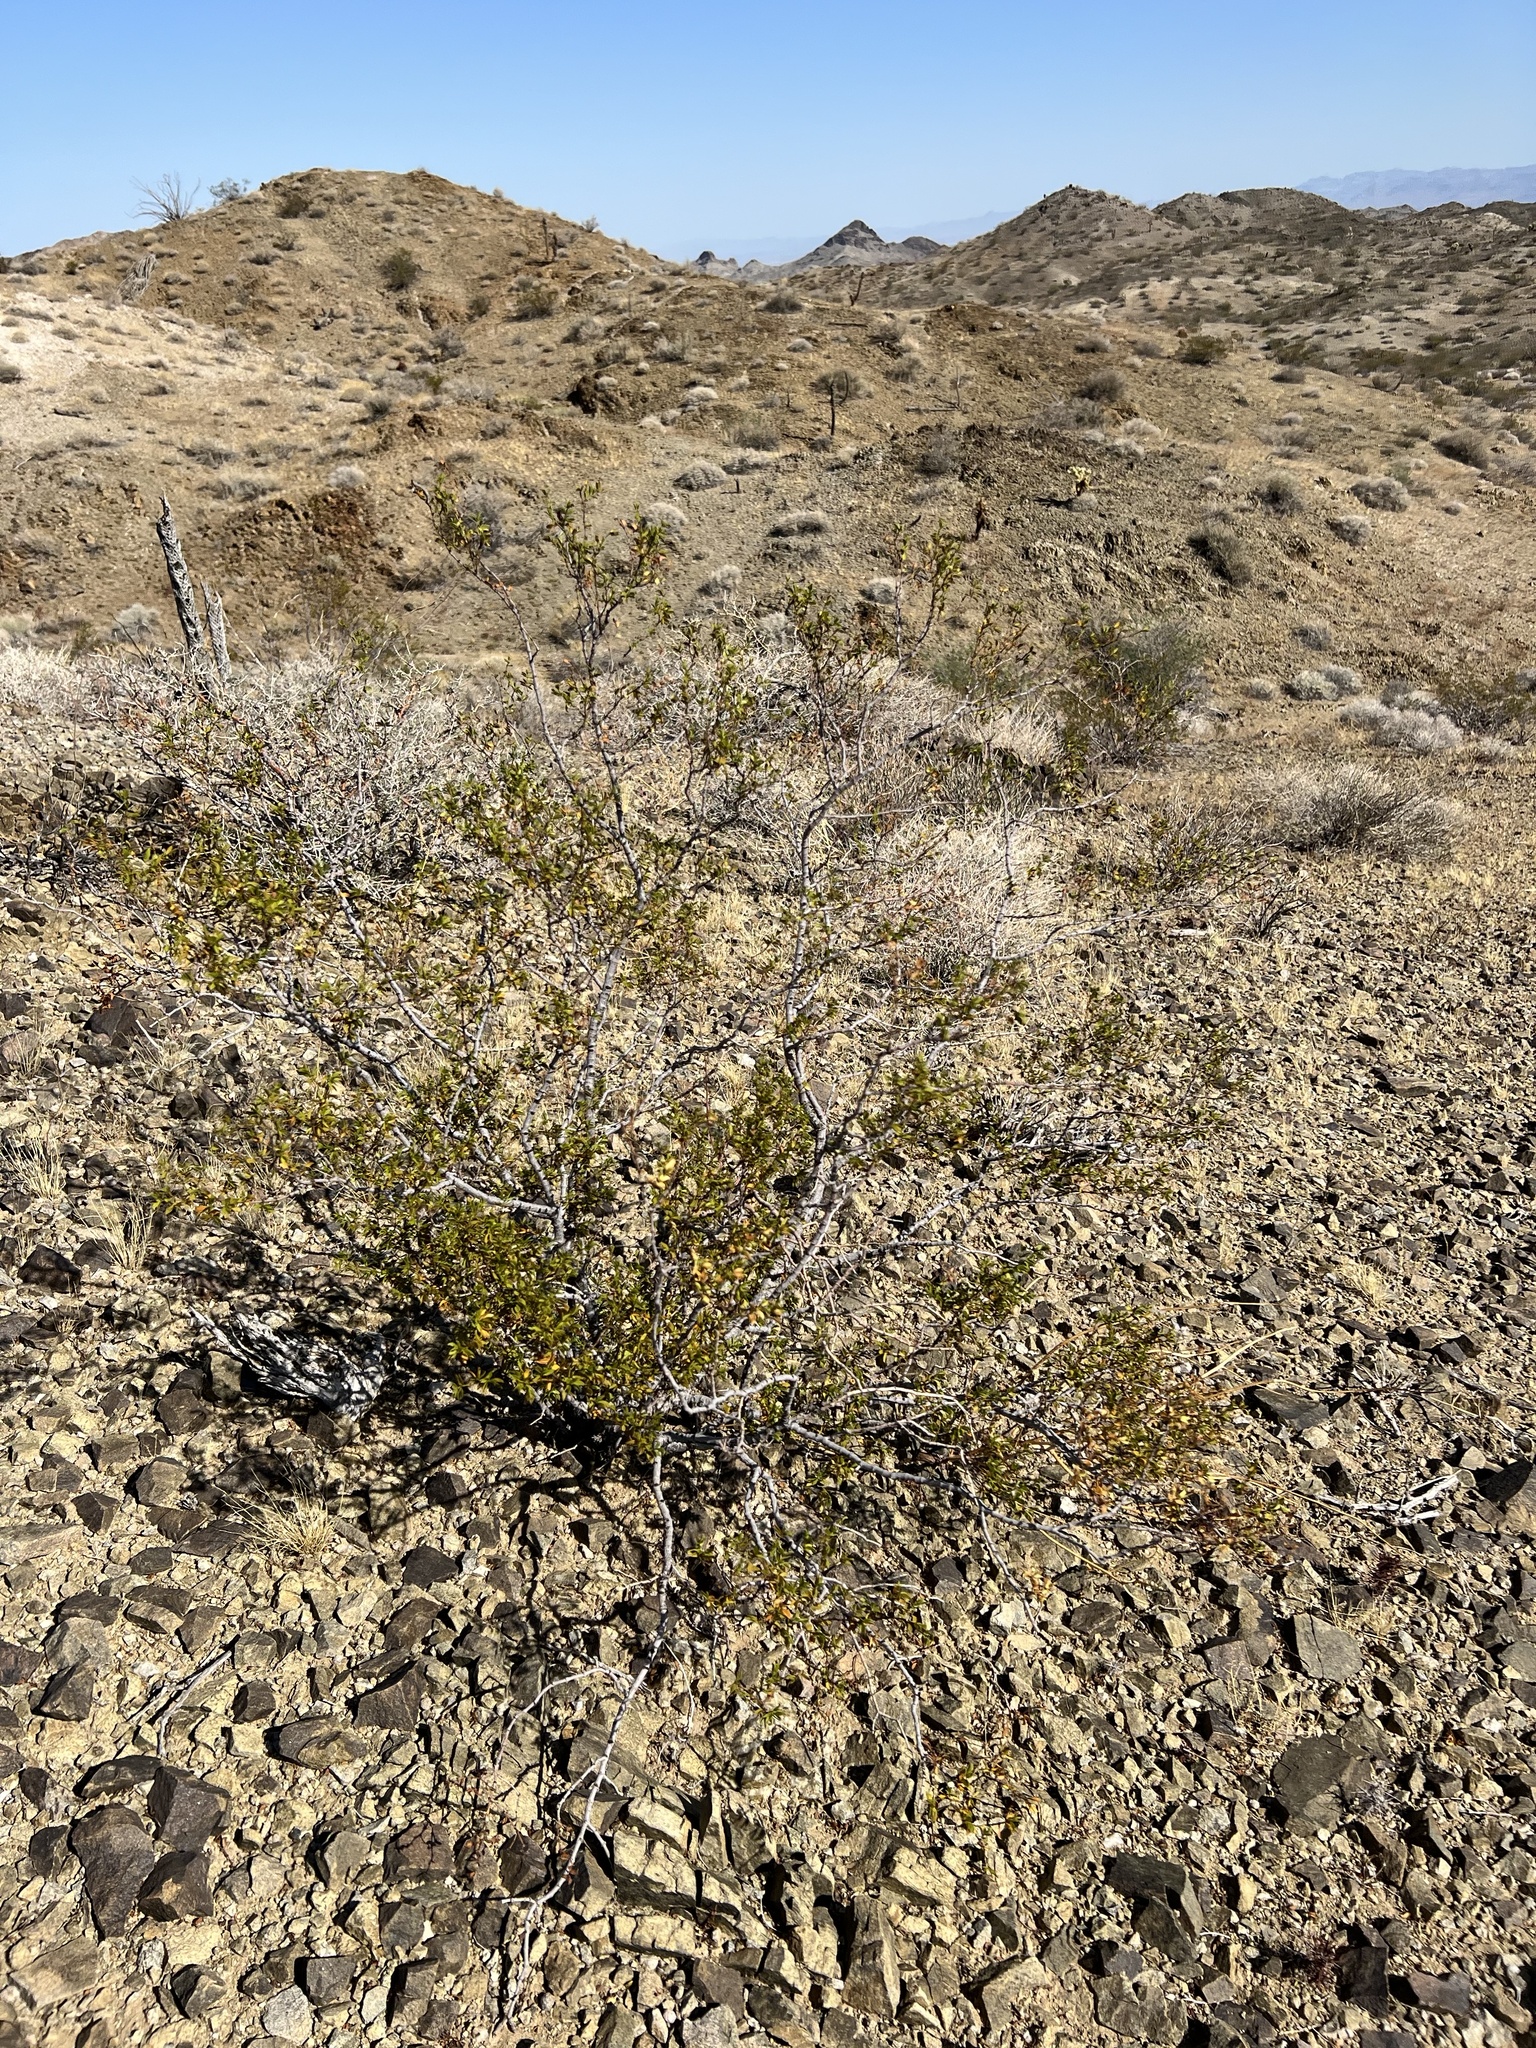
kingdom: Plantae
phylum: Tracheophyta
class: Magnoliopsida
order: Zygophyllales
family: Zygophyllaceae
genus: Larrea
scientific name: Larrea tridentata
